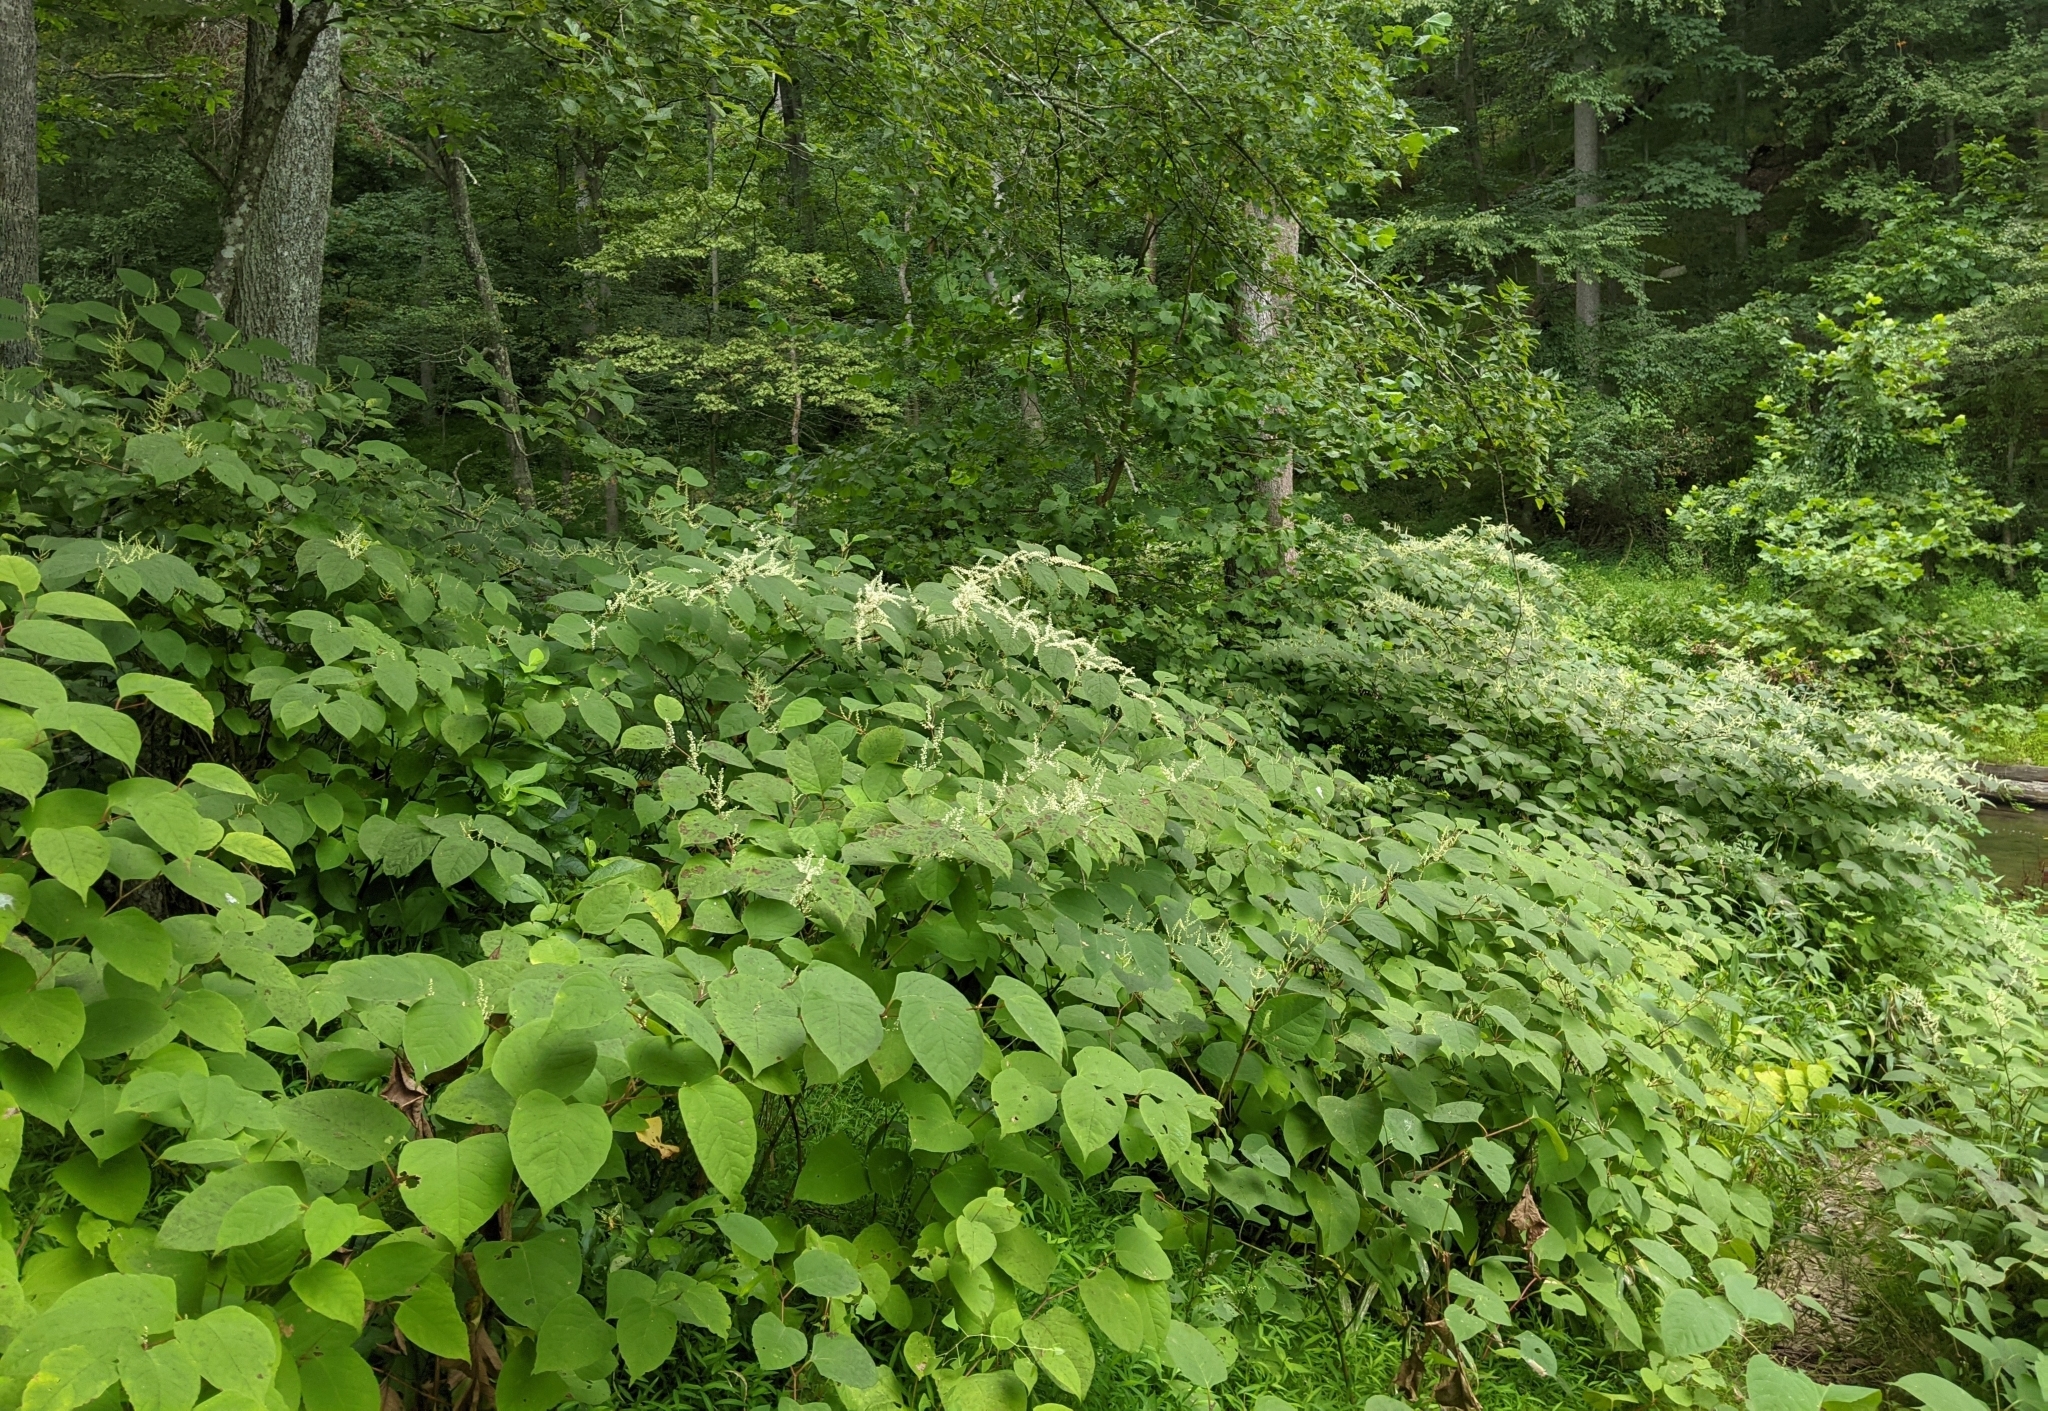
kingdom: Plantae
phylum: Tracheophyta
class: Magnoliopsida
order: Caryophyllales
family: Polygonaceae
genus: Reynoutria
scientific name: Reynoutria japonica
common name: Japanese knotweed
